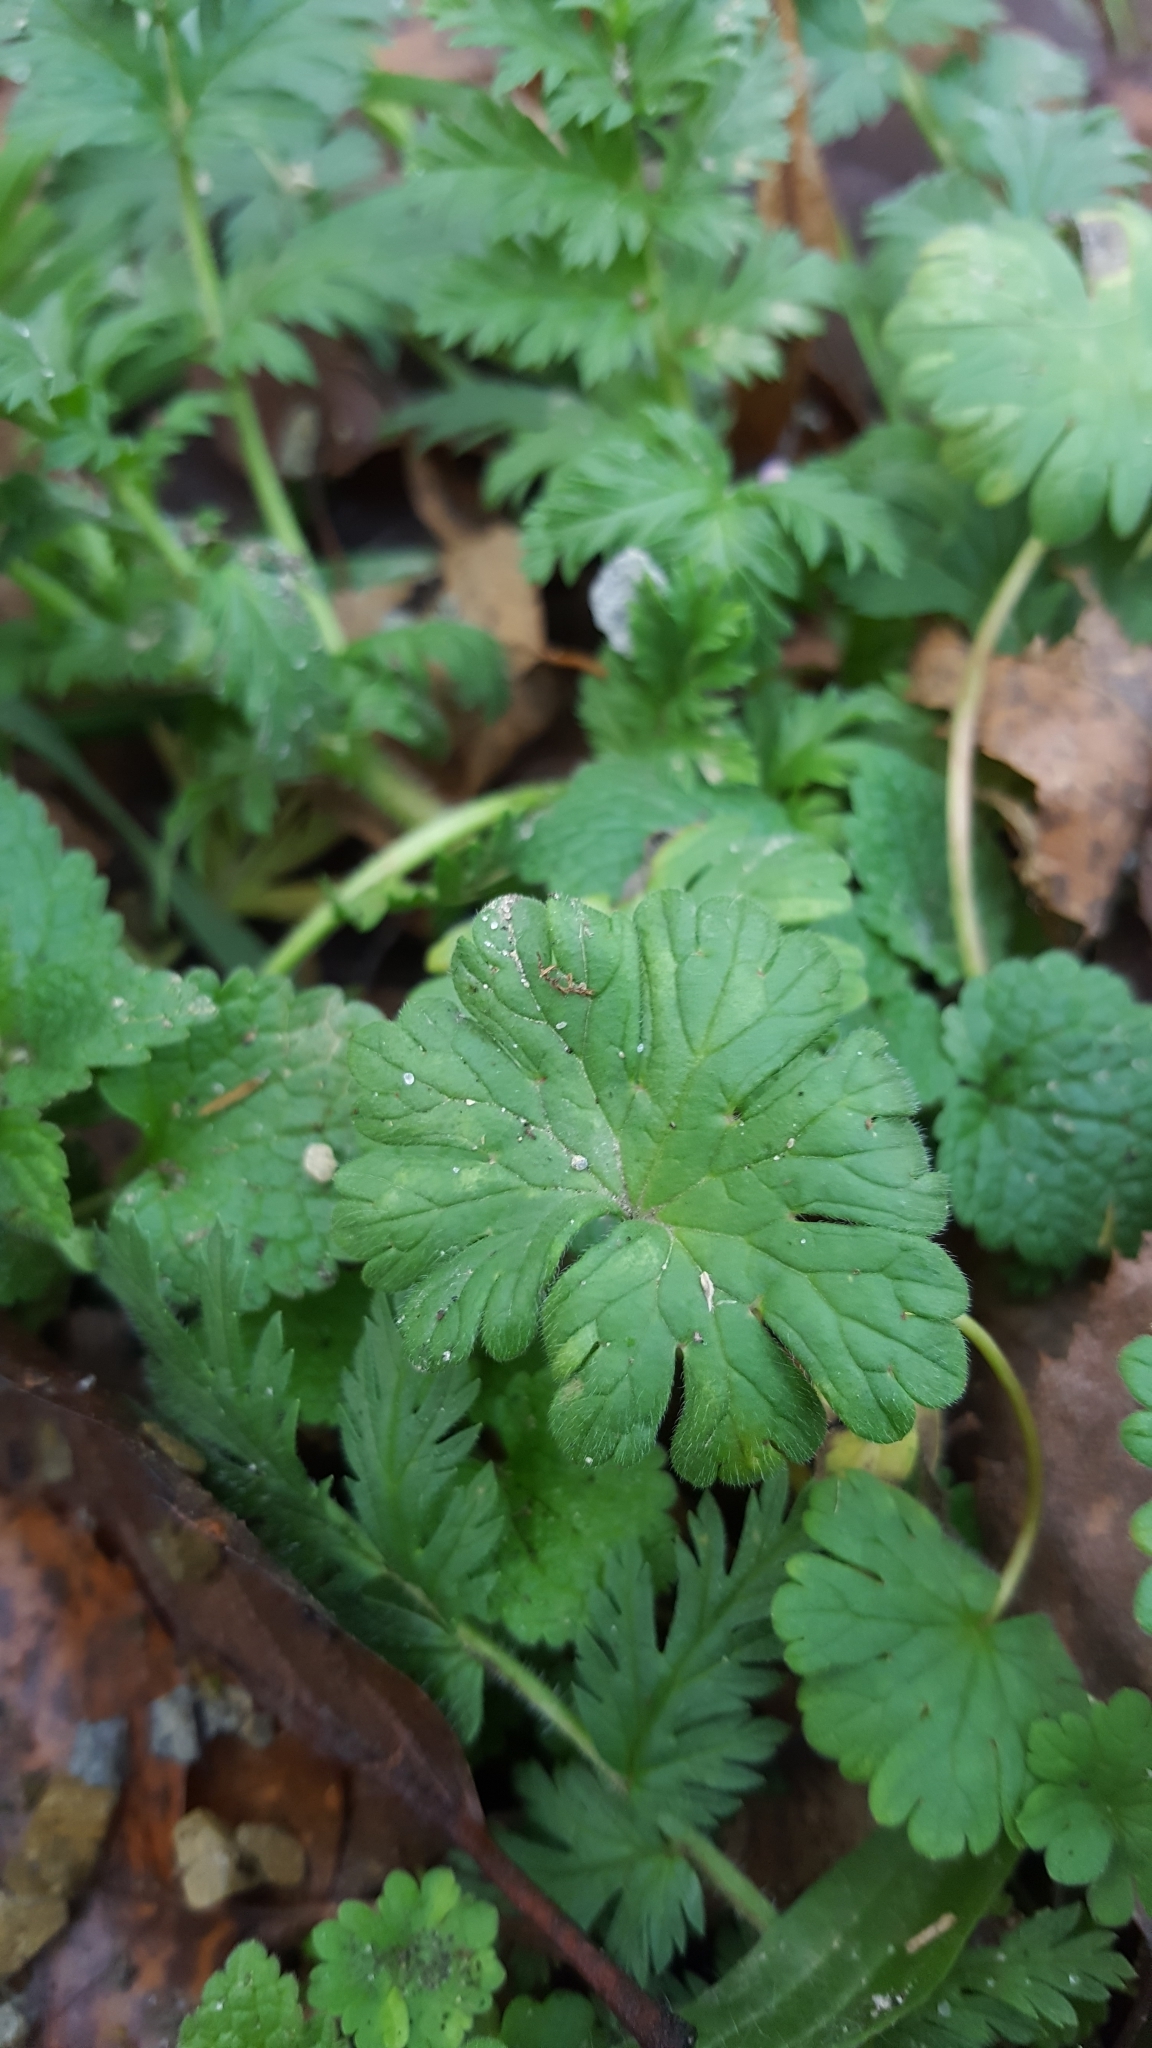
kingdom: Plantae
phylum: Tracheophyta
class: Magnoliopsida
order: Geraniales
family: Geraniaceae
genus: Geranium
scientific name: Geranium pusillum
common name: Small geranium
